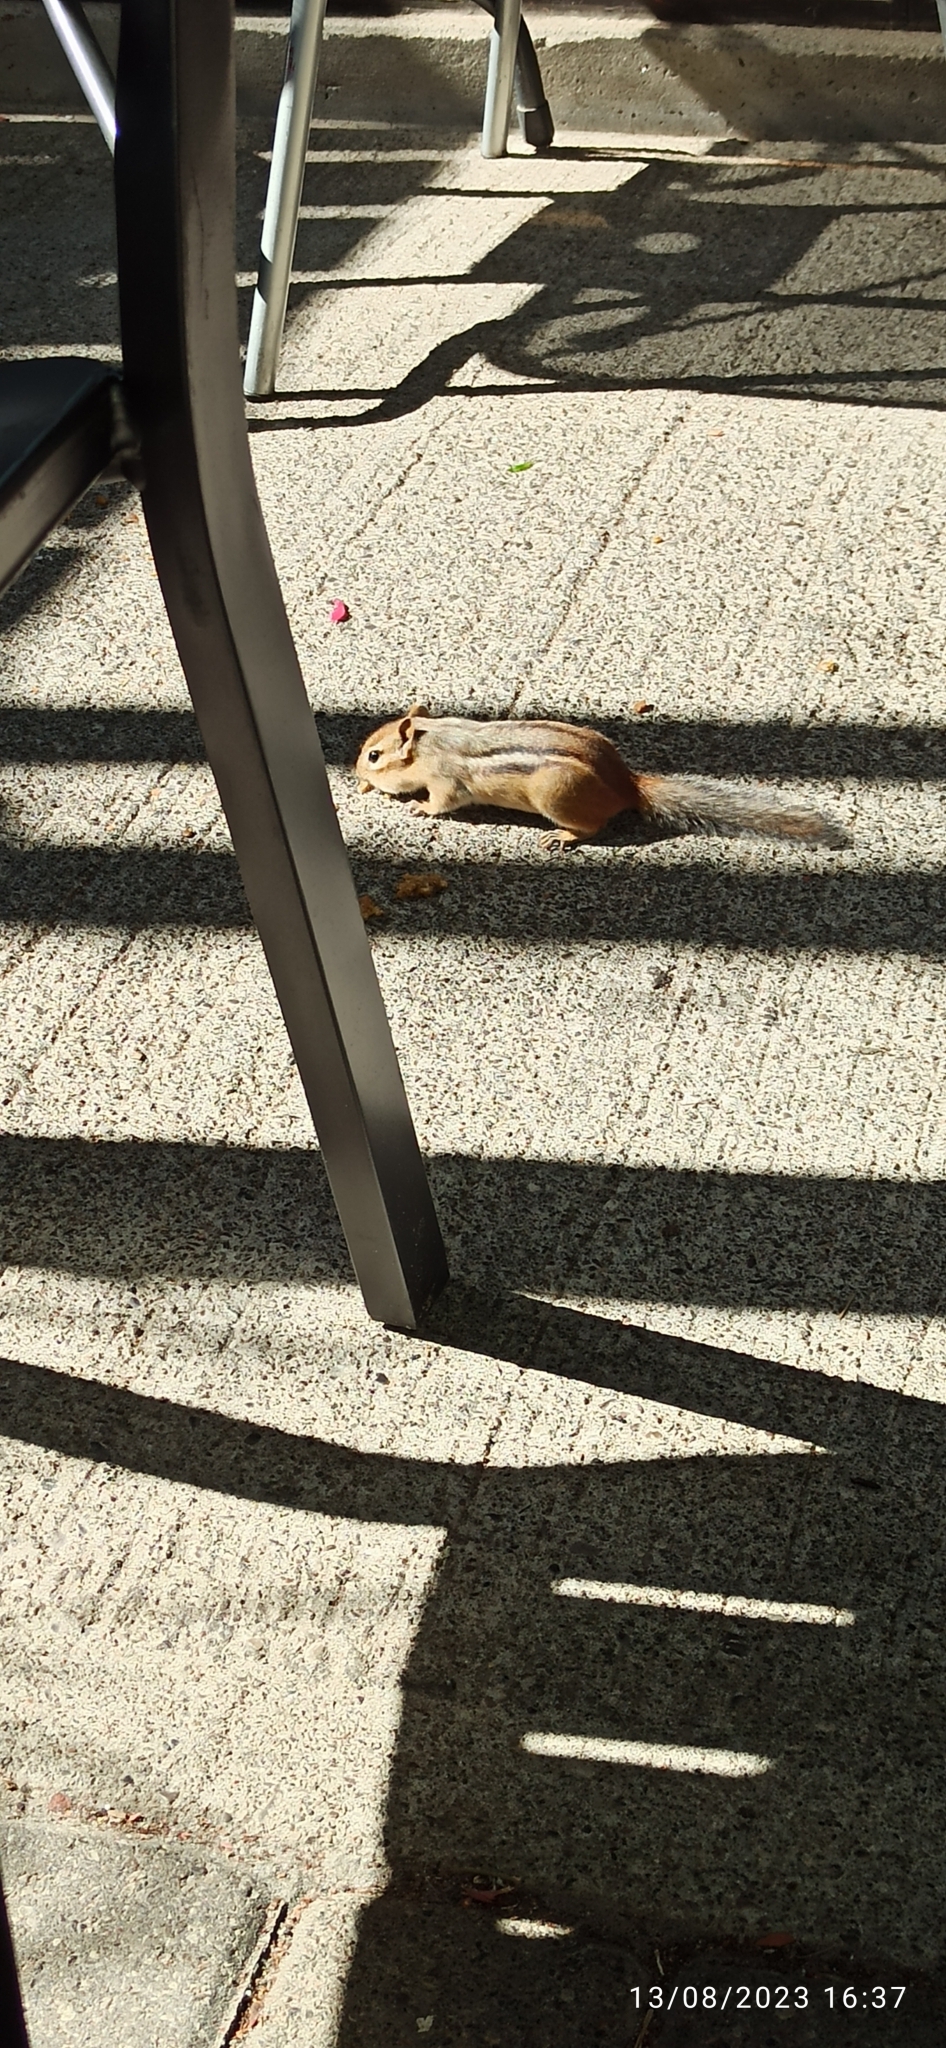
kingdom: Animalia
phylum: Chordata
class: Mammalia
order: Rodentia
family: Sciuridae
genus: Tamias
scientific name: Tamias striatus
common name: Eastern chipmunk
